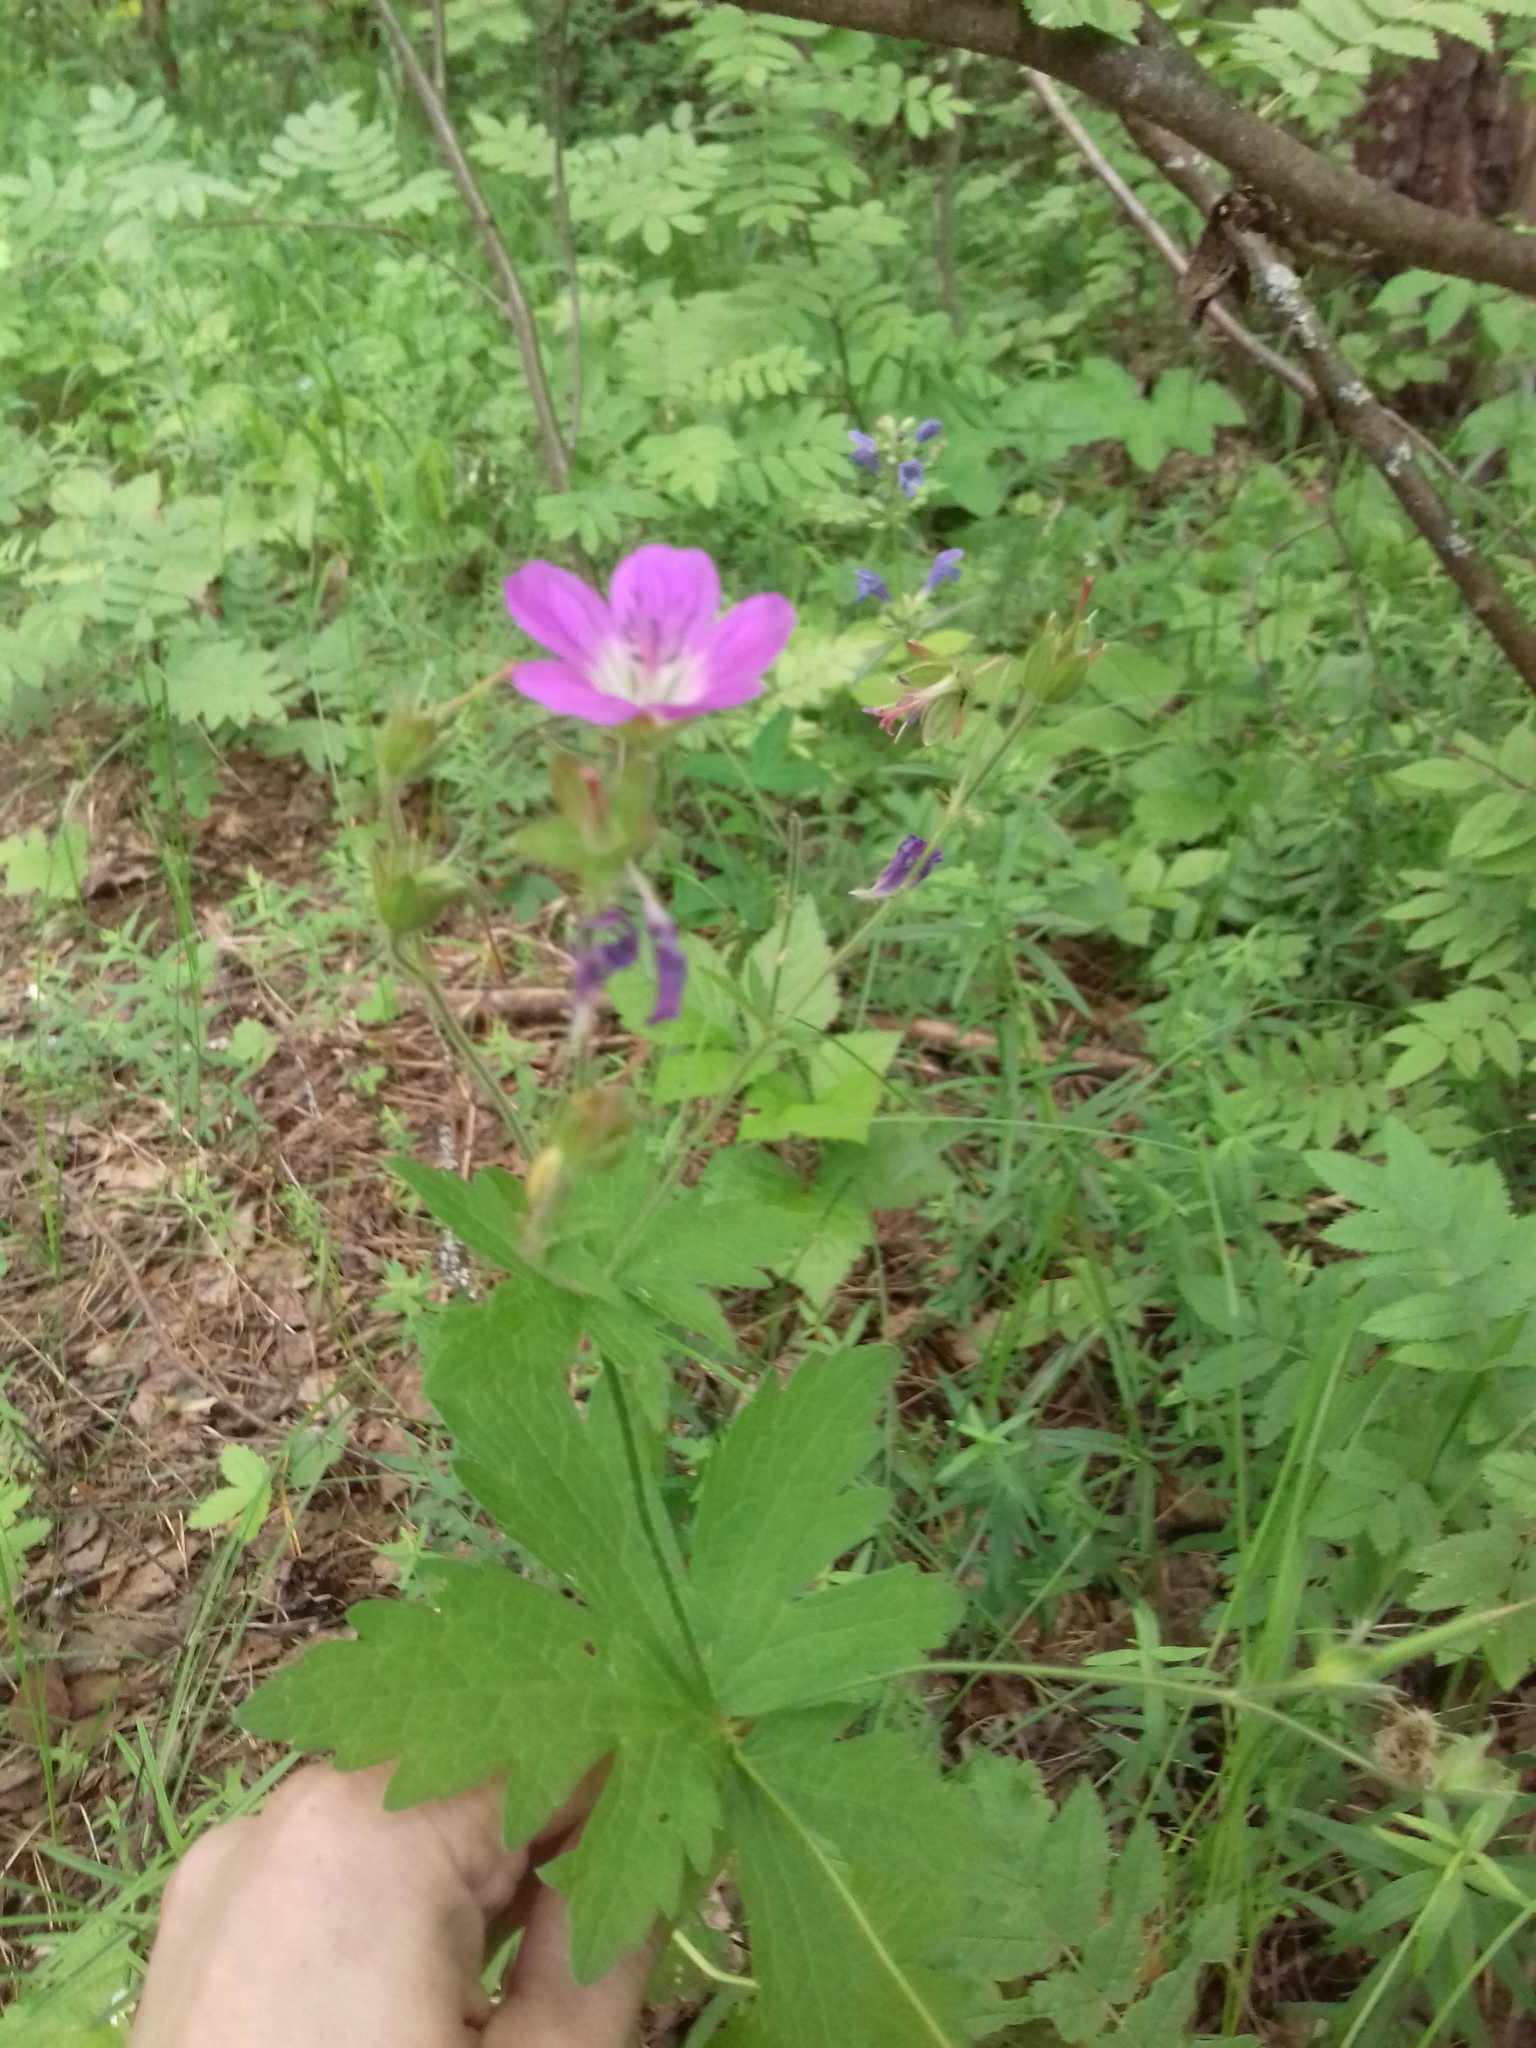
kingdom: Plantae
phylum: Tracheophyta
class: Magnoliopsida
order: Geraniales
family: Geraniaceae
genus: Geranium
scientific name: Geranium sylvaticum
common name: Wood crane's-bill
